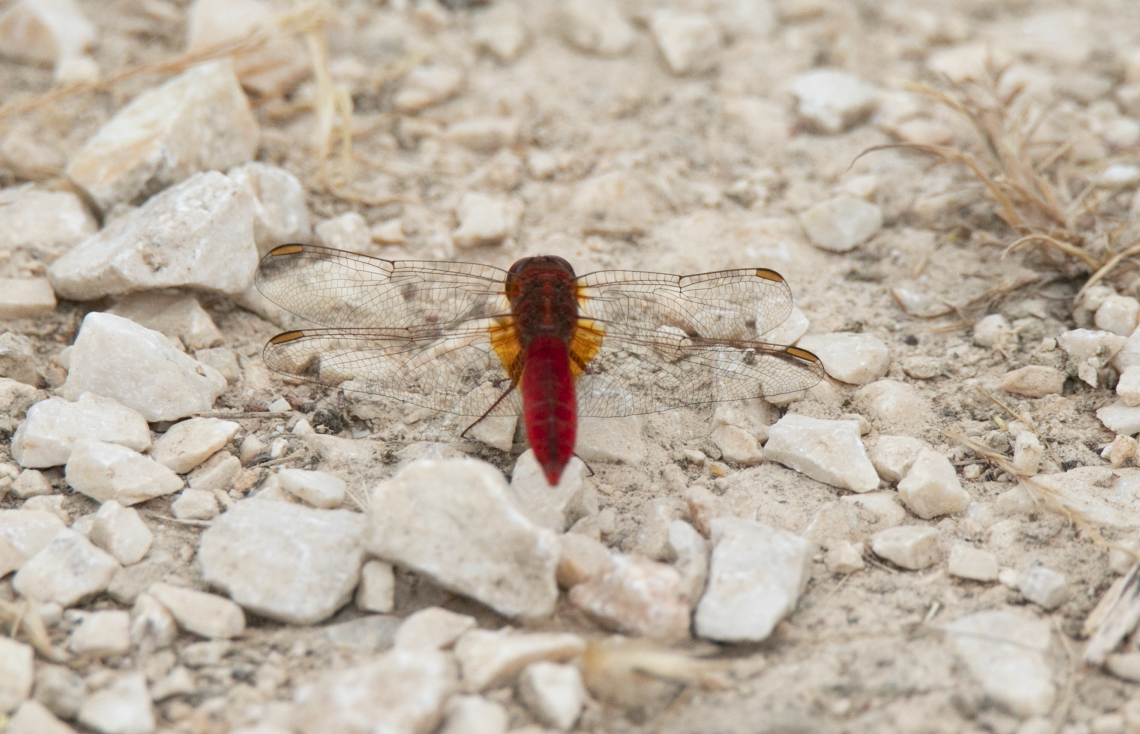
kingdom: Animalia
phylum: Arthropoda
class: Insecta
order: Odonata
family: Libellulidae
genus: Crocothemis
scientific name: Crocothemis erythraea
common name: Scarlet dragonfly
